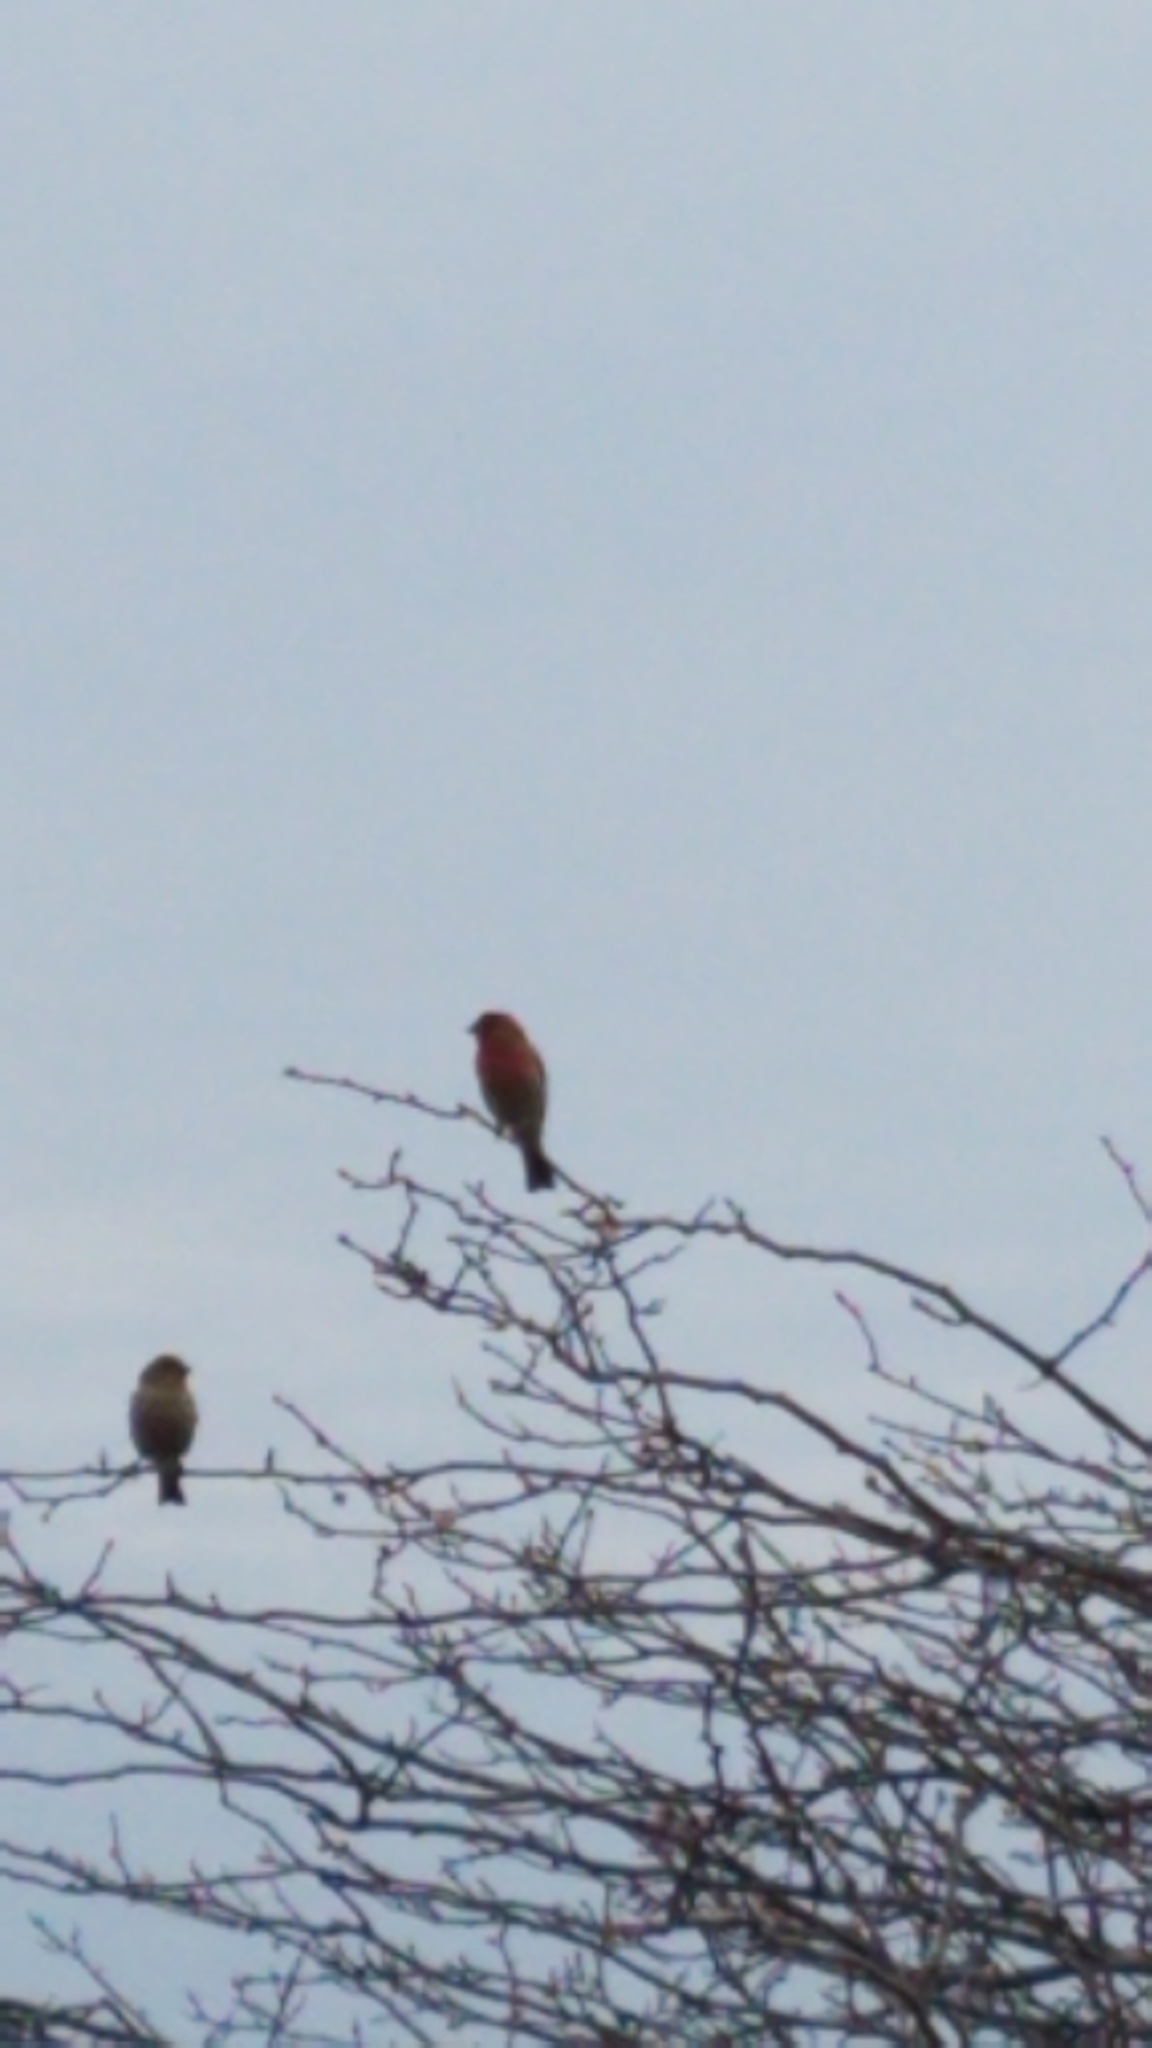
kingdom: Animalia
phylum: Chordata
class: Aves
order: Passeriformes
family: Fringillidae
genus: Haemorhous
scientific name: Haemorhous mexicanus
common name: House finch
